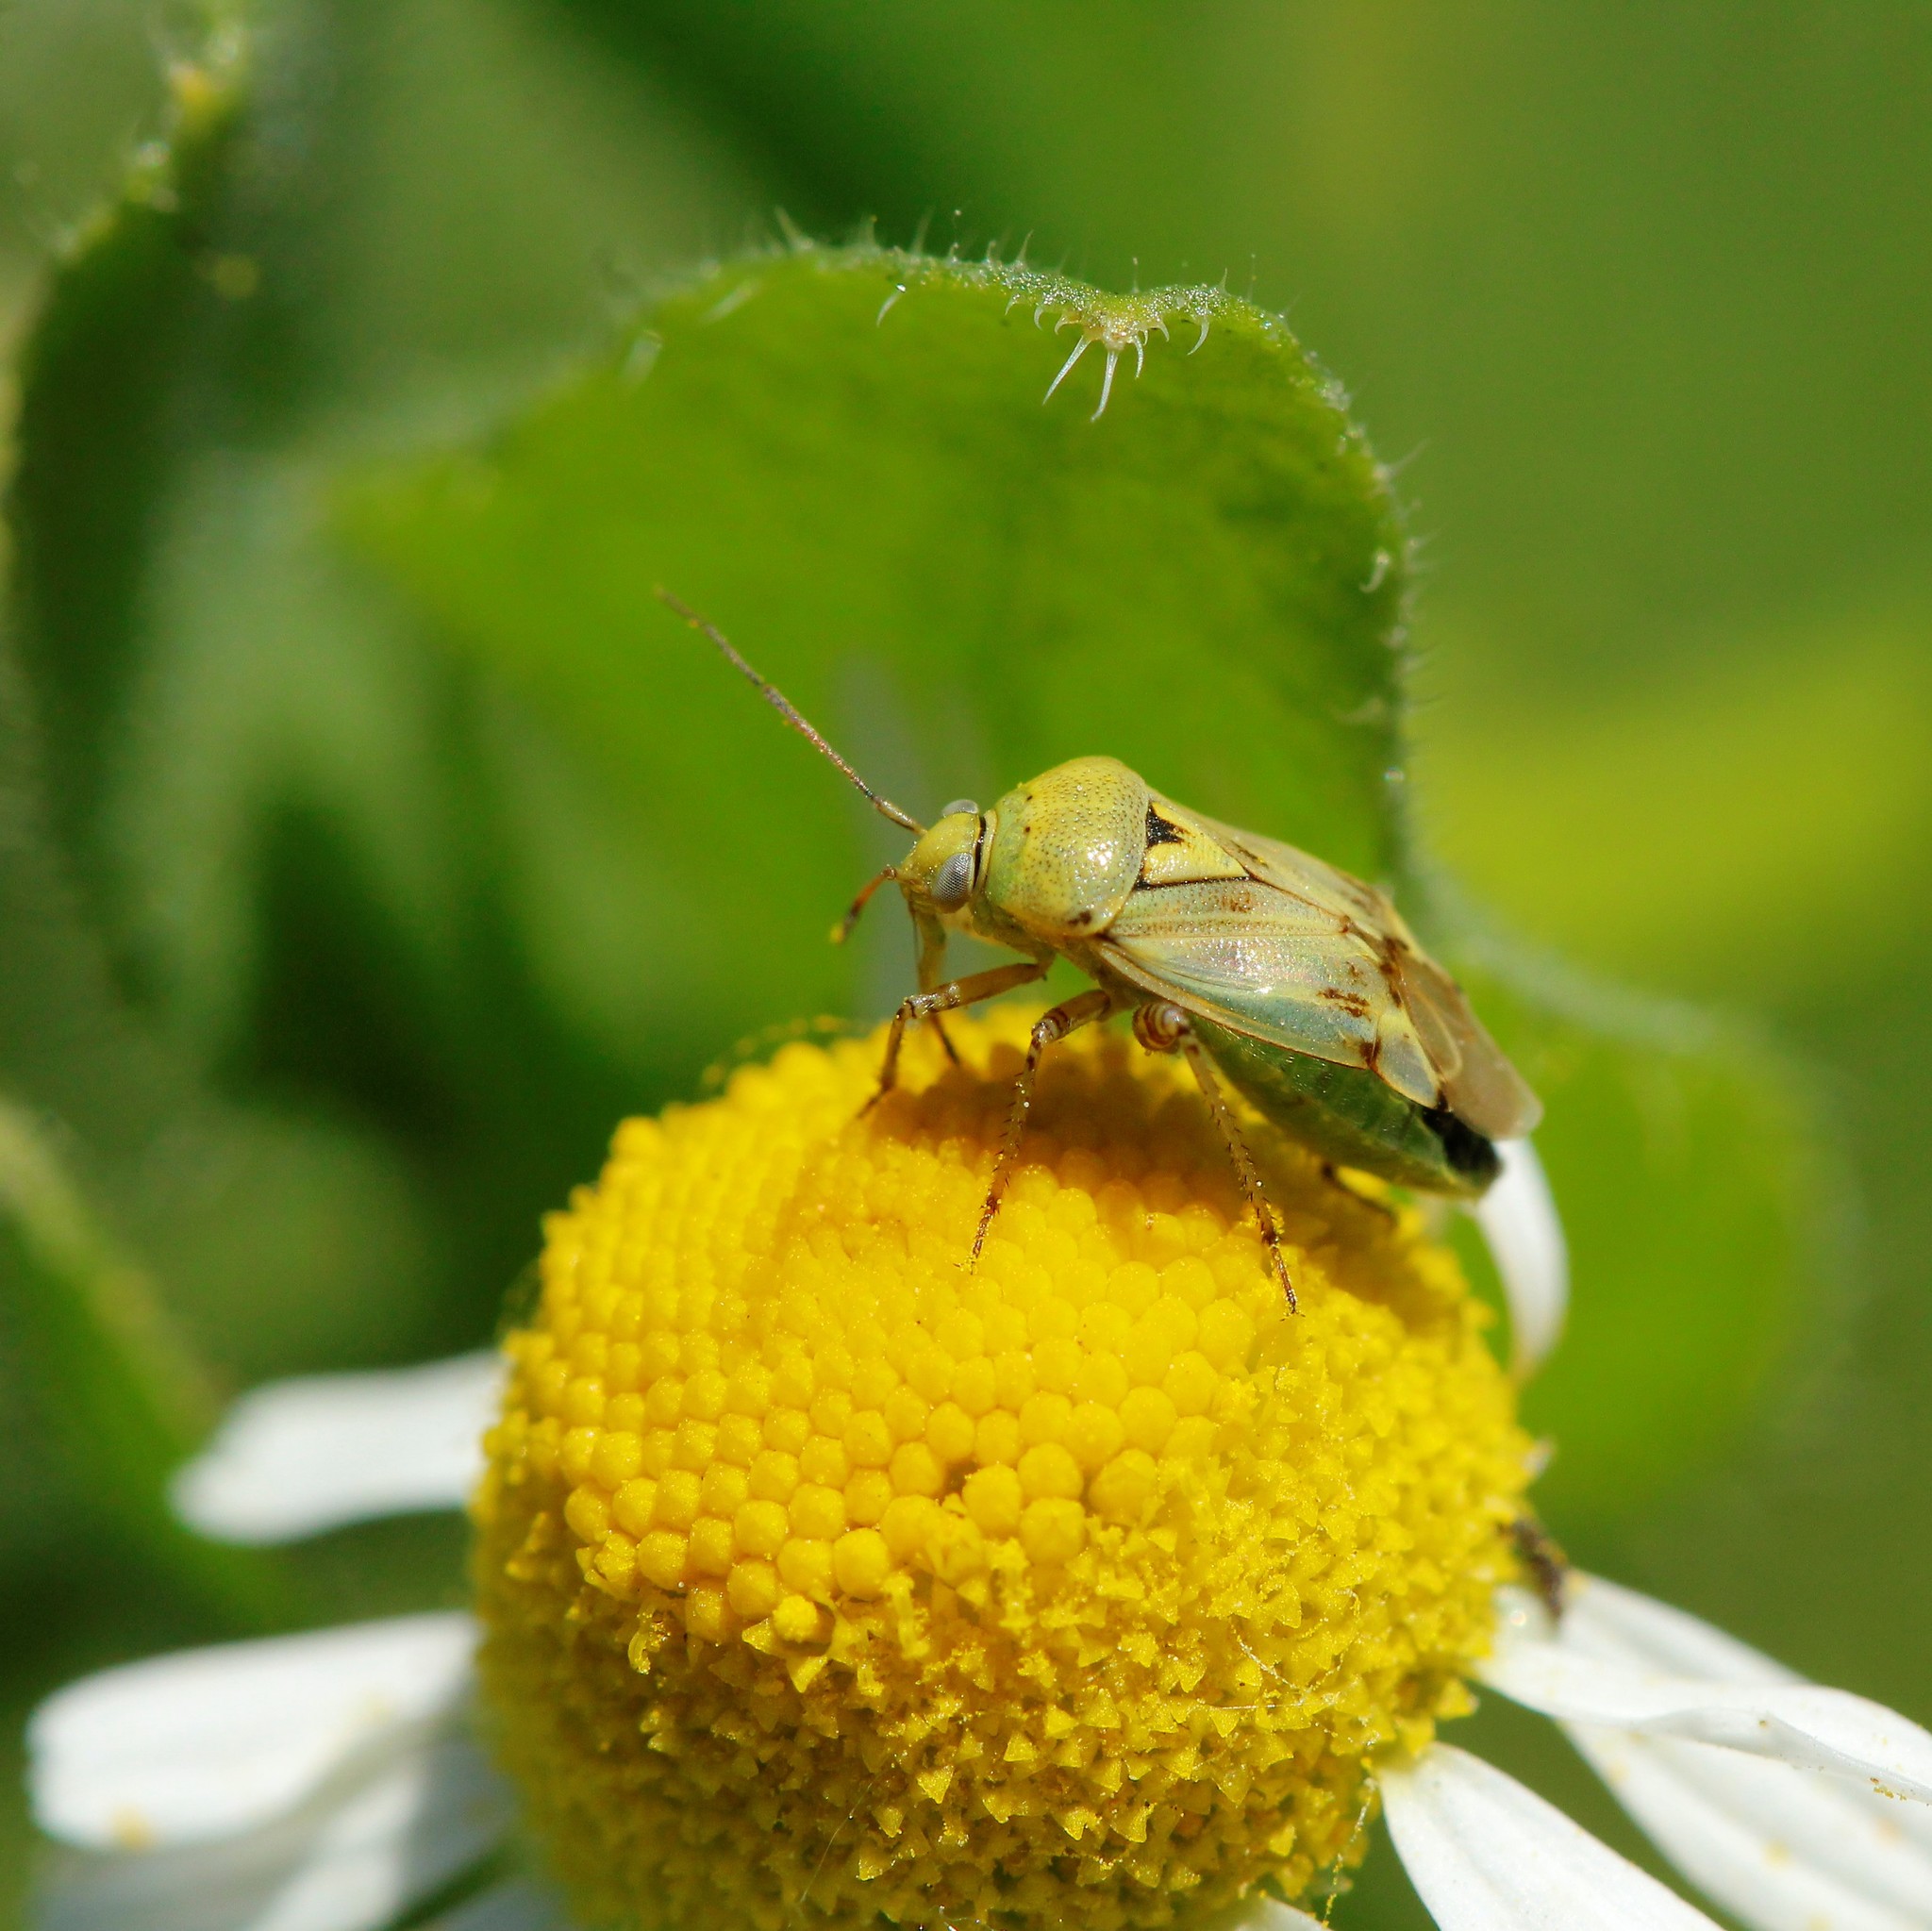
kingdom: Animalia
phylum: Arthropoda
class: Insecta
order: Hemiptera
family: Miridae
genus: Lygus
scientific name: Lygus gemellatus
